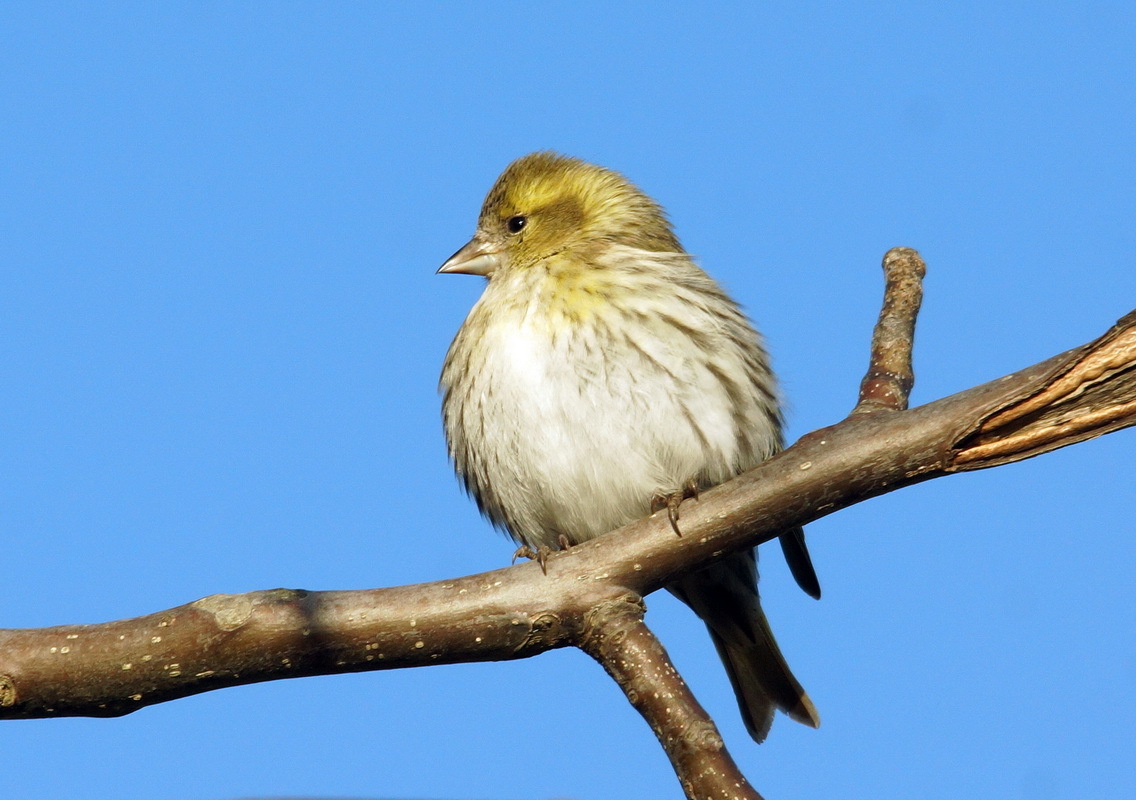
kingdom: Animalia
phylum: Chordata
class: Aves
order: Passeriformes
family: Fringillidae
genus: Spinus
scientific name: Spinus spinus
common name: Eurasian siskin
